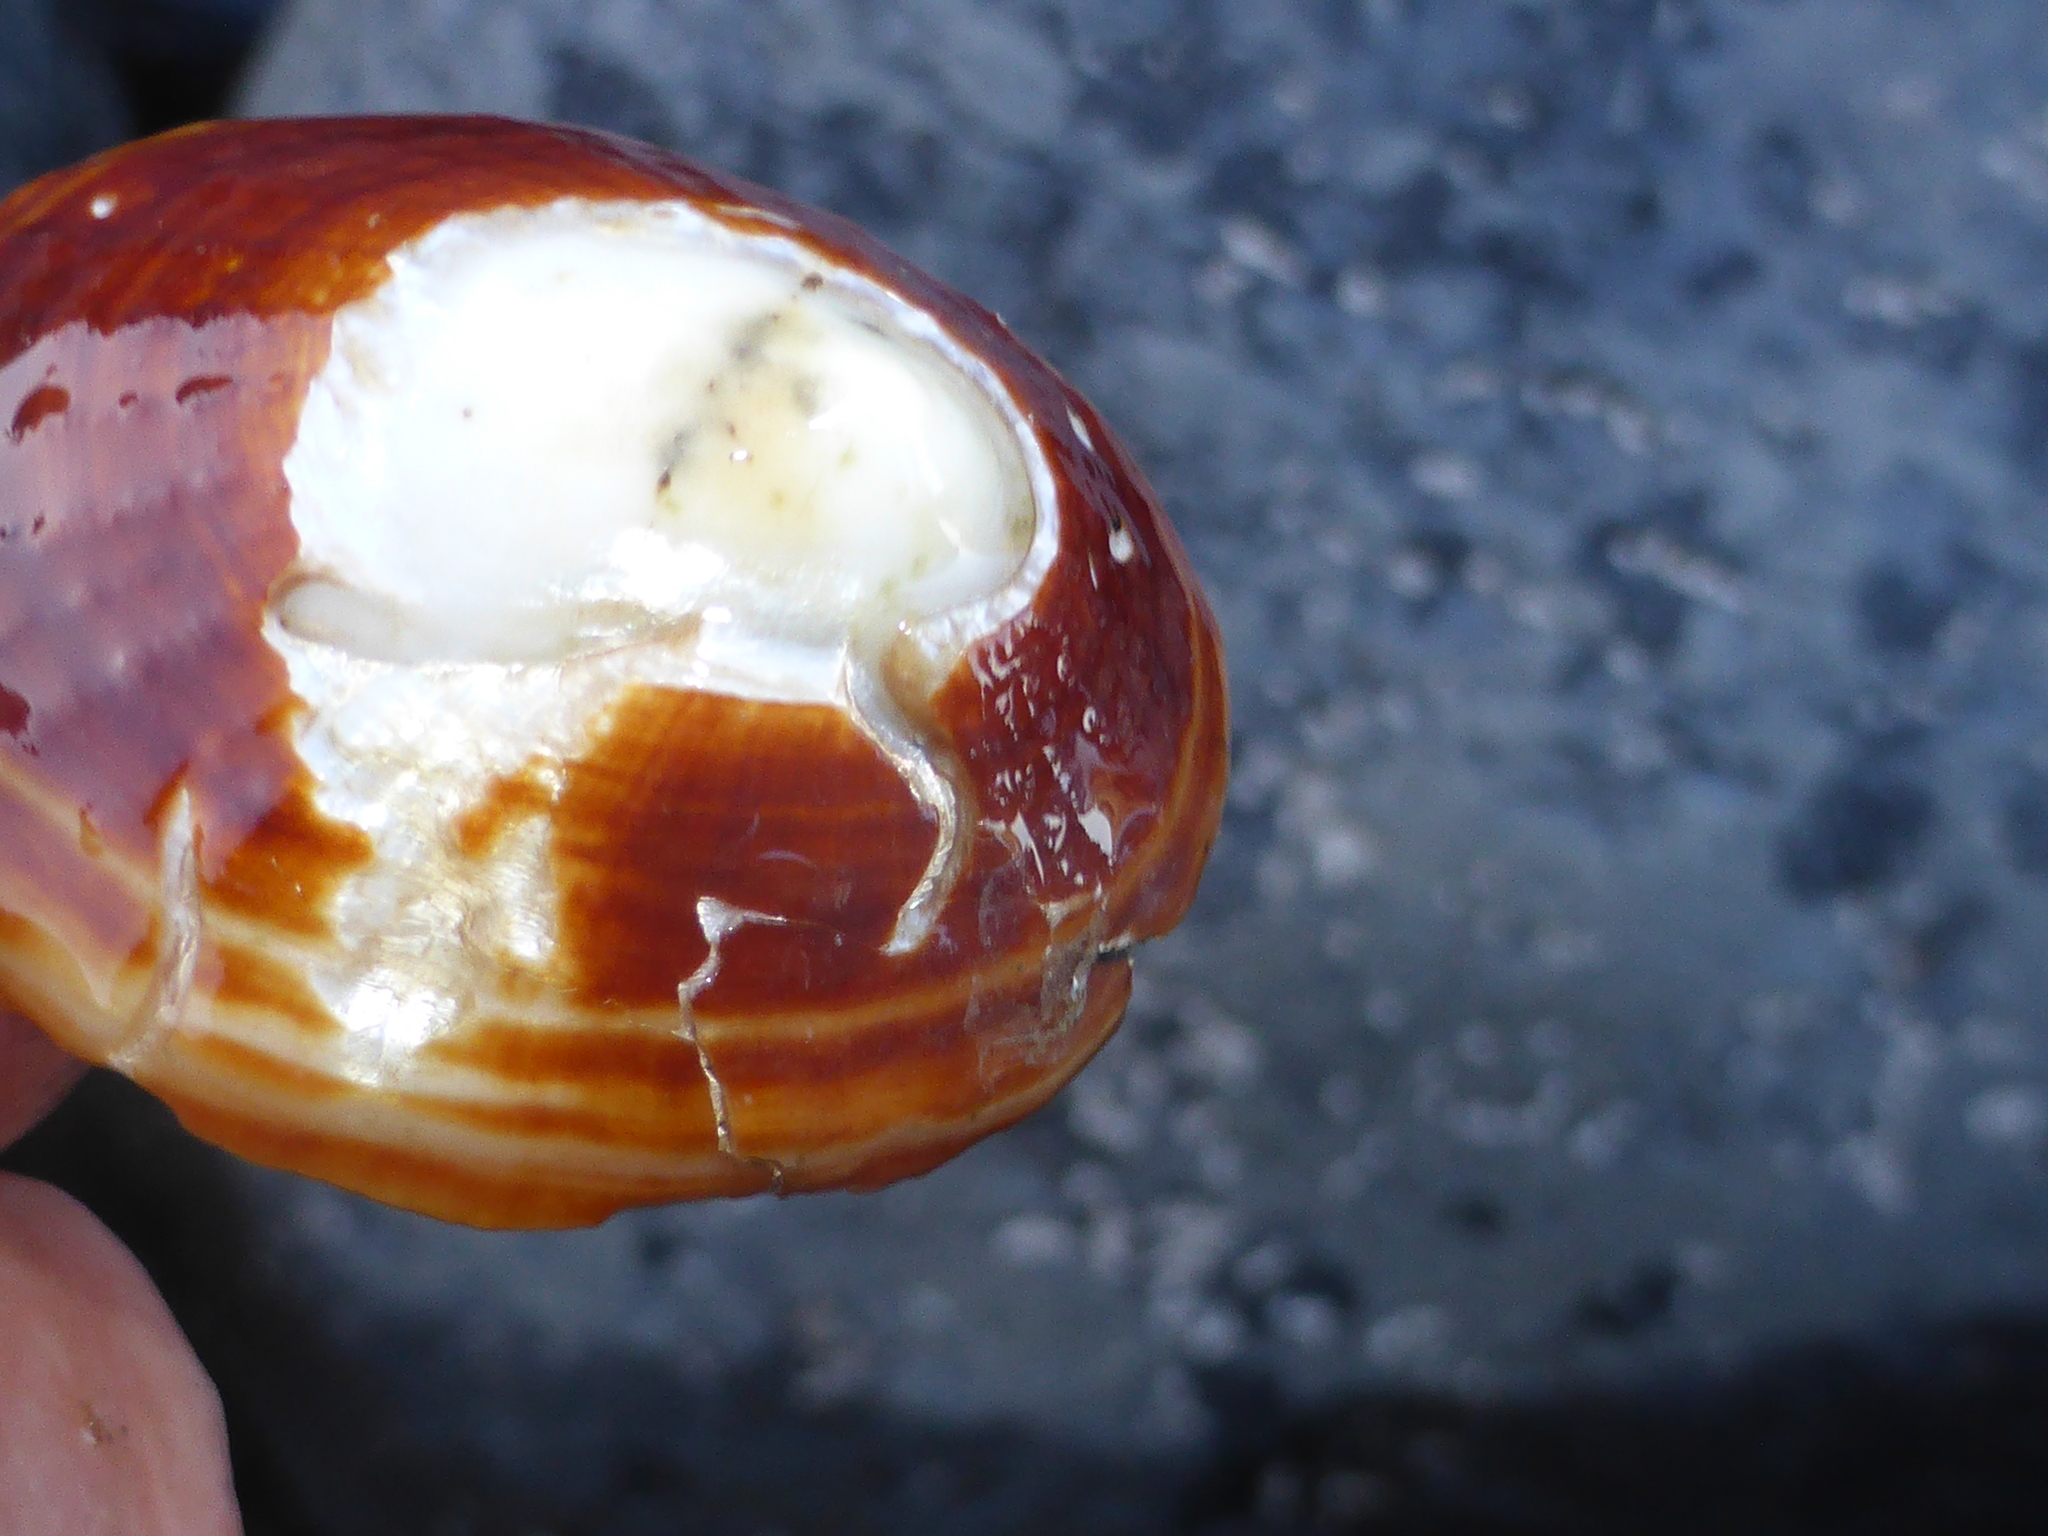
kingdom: Animalia
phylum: Mollusca
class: Gastropoda
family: Nacellidae
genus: Cellana
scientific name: Cellana stellifera
